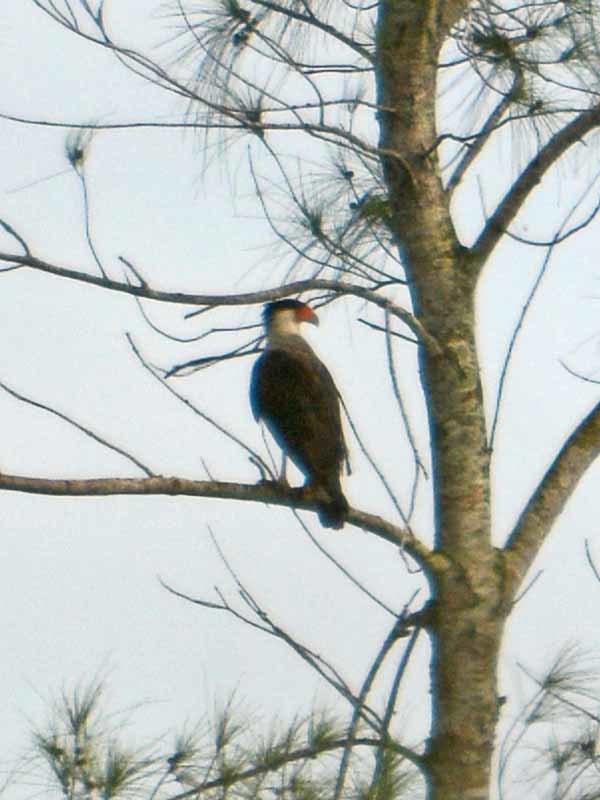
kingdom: Animalia
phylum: Chordata
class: Aves
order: Falconiformes
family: Falconidae
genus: Caracara
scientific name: Caracara plancus
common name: Southern caracara
